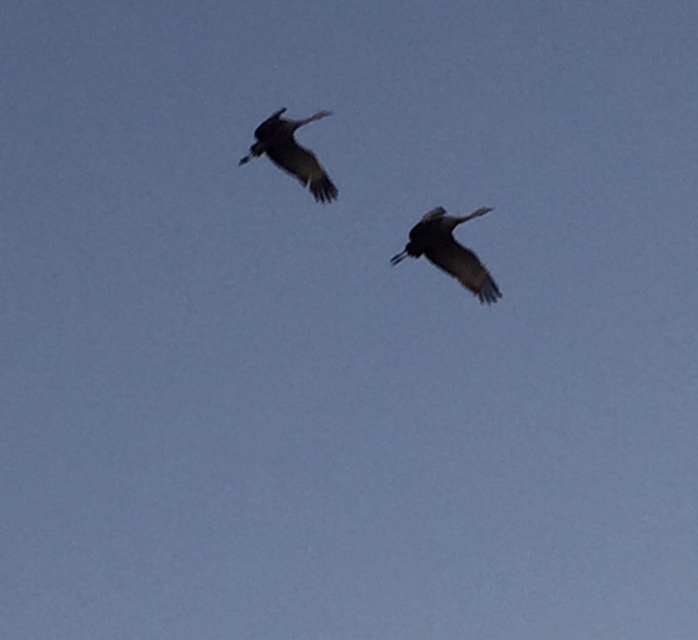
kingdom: Animalia
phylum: Chordata
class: Aves
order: Gruiformes
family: Gruidae
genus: Grus
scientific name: Grus canadensis
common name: Sandhill crane
